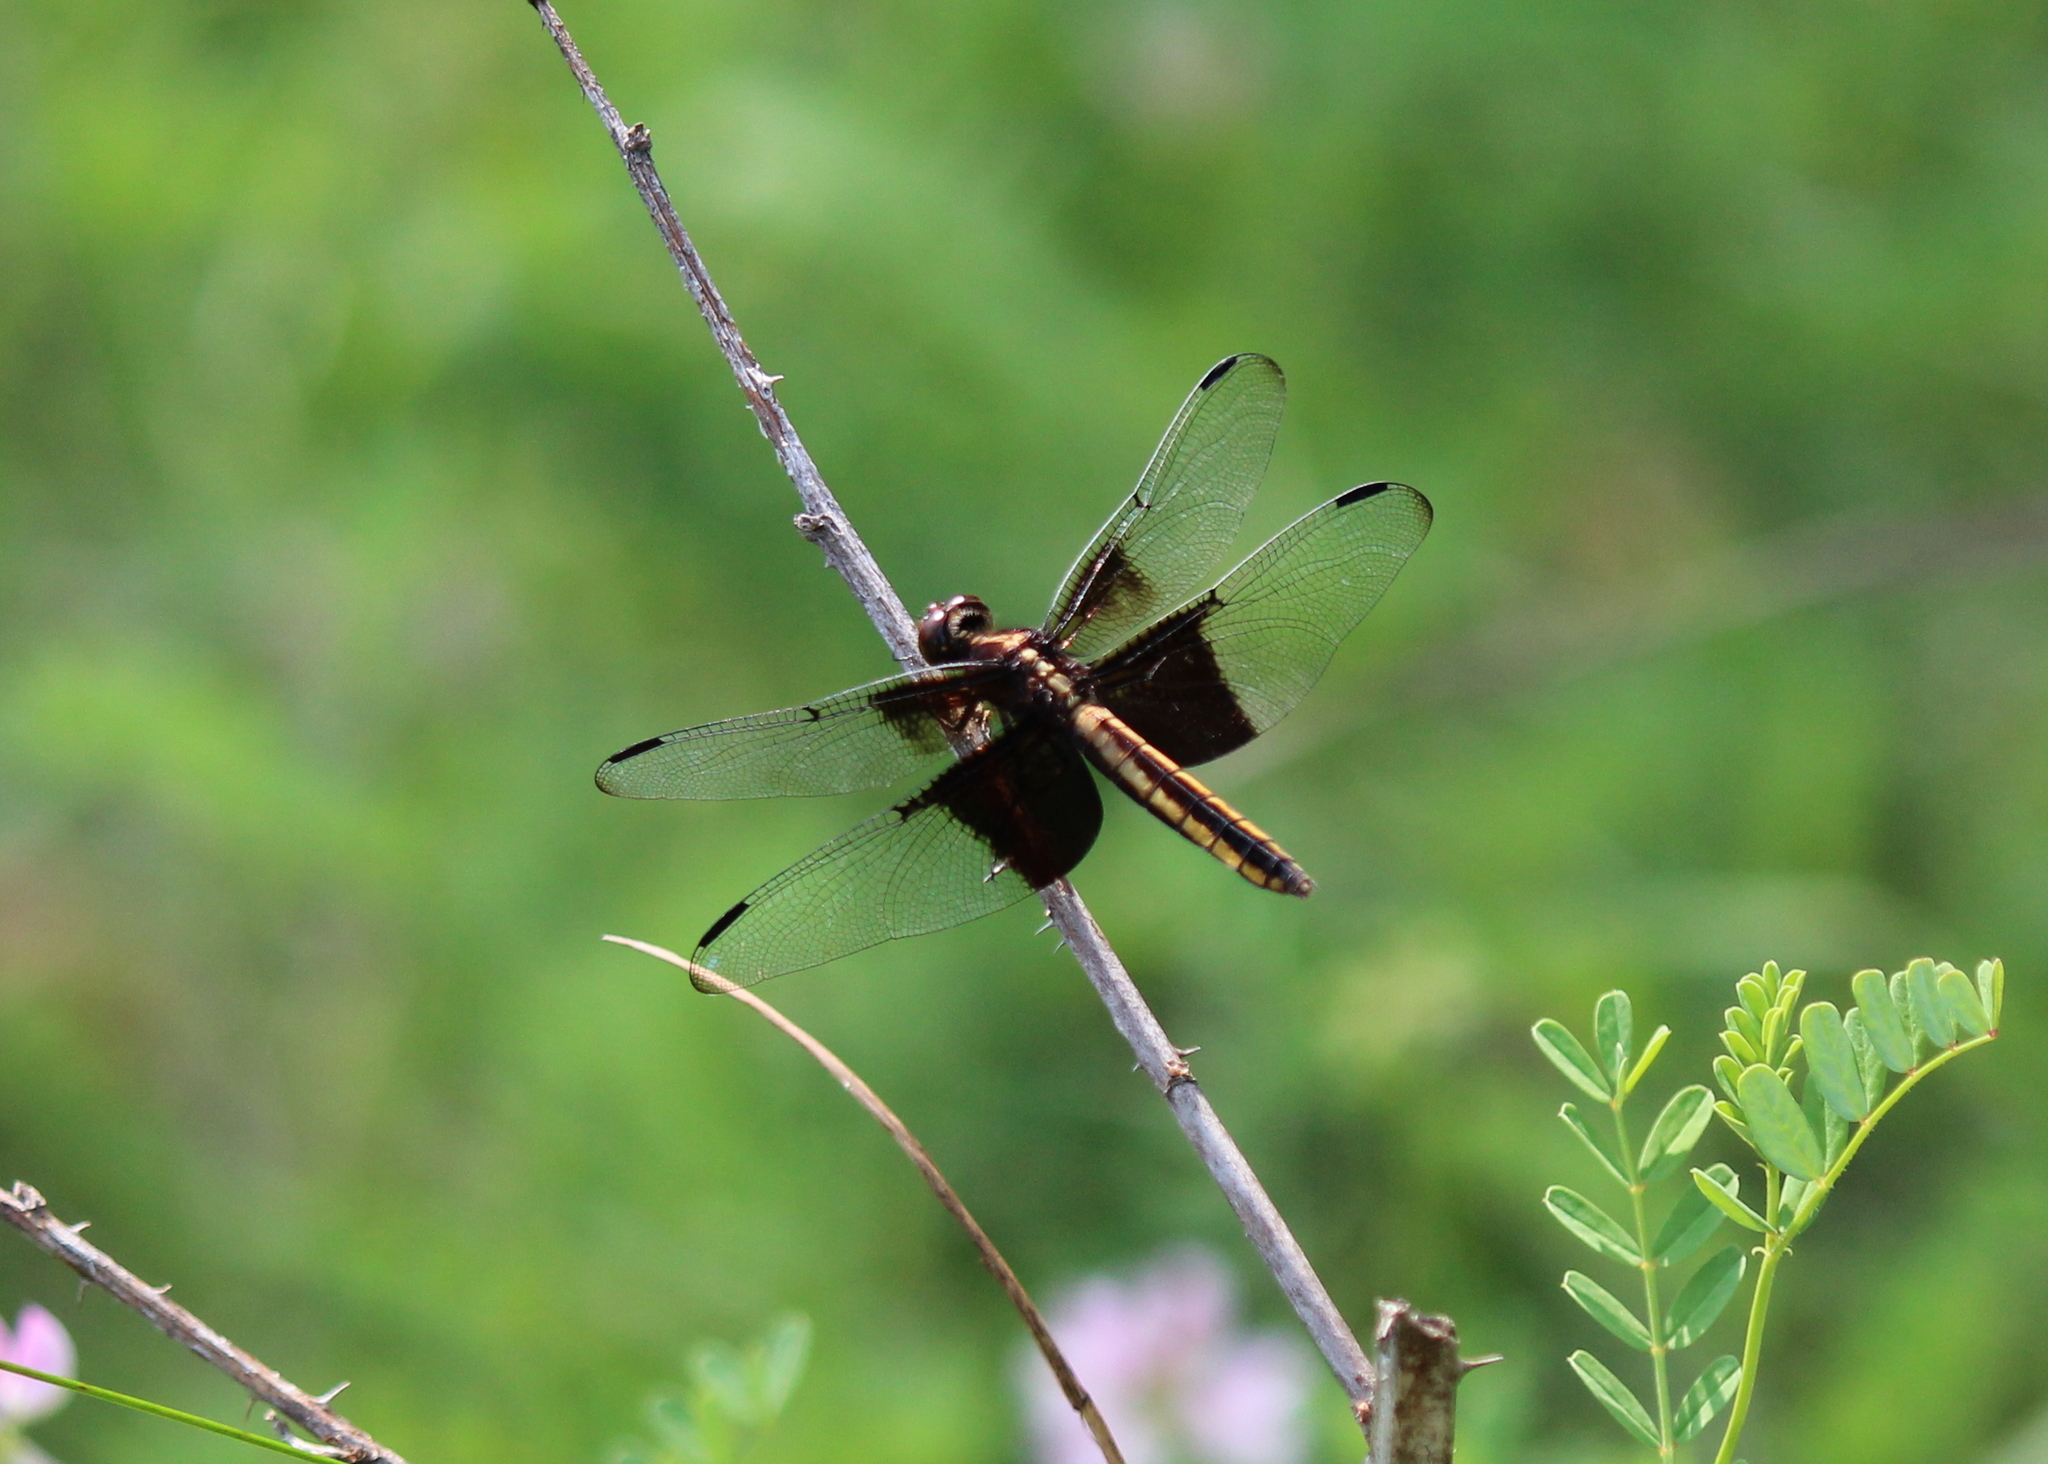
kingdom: Animalia
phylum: Arthropoda
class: Insecta
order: Odonata
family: Libellulidae
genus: Libellula
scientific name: Libellula luctuosa
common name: Widow skimmer
